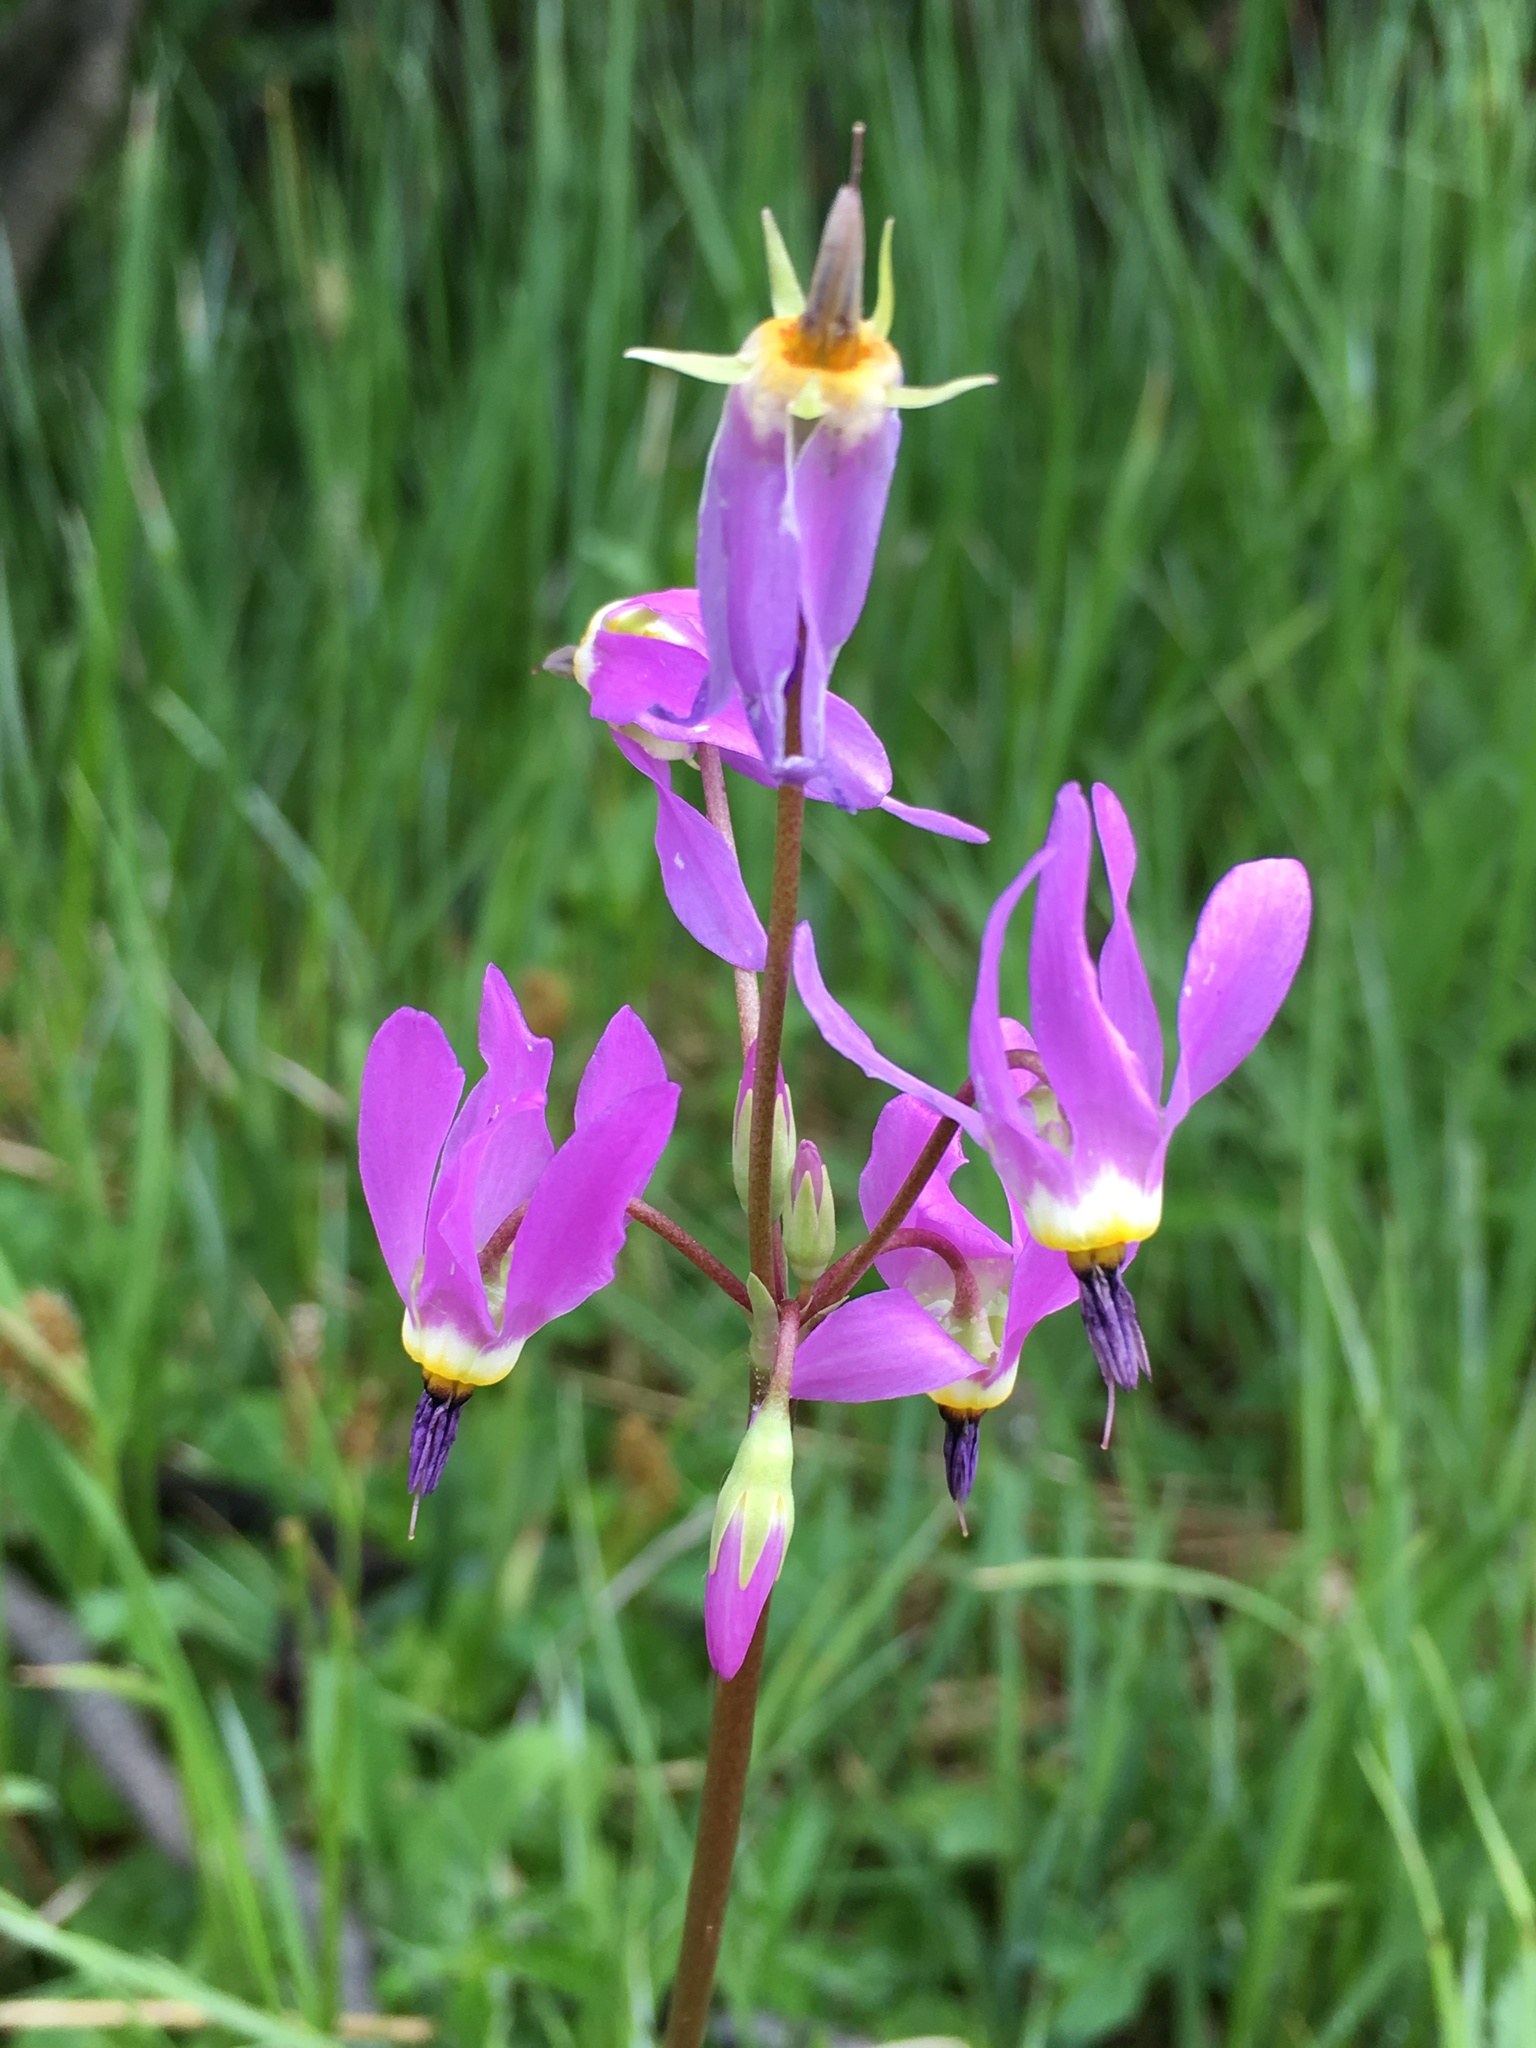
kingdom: Plantae
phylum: Tracheophyta
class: Magnoliopsida
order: Ericales
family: Primulaceae
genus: Dodecatheon
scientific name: Dodecatheon pulchellum
